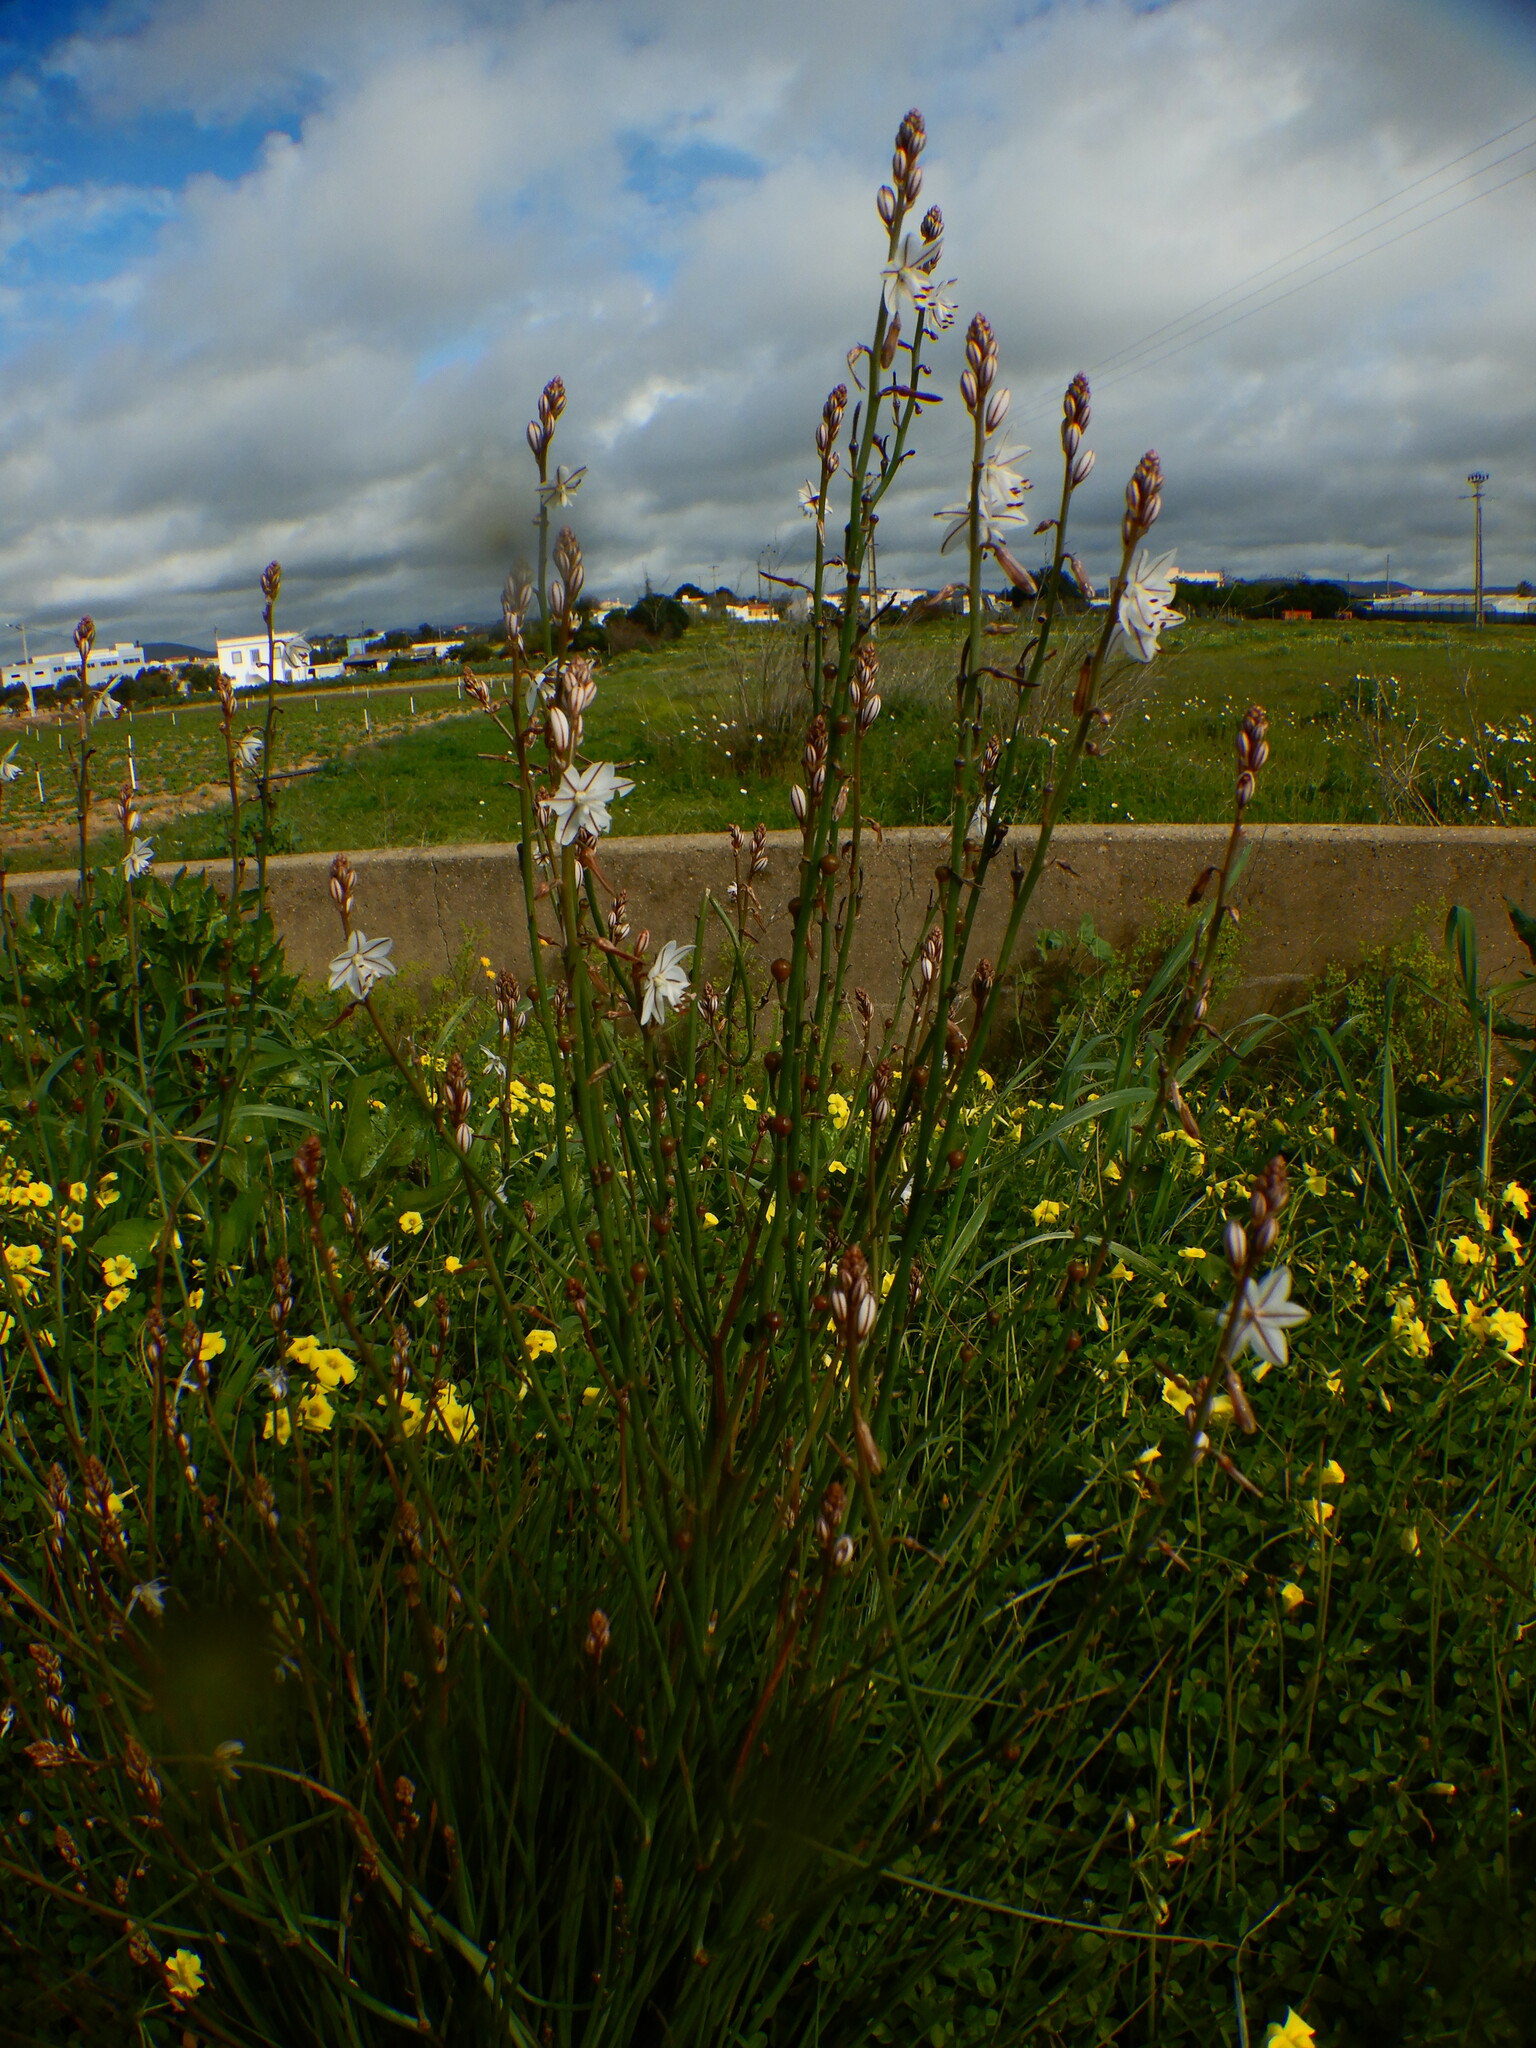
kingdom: Plantae
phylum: Tracheophyta
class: Liliopsida
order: Asparagales
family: Asphodelaceae
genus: Asphodelus
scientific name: Asphodelus fistulosus
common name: Onionweed
